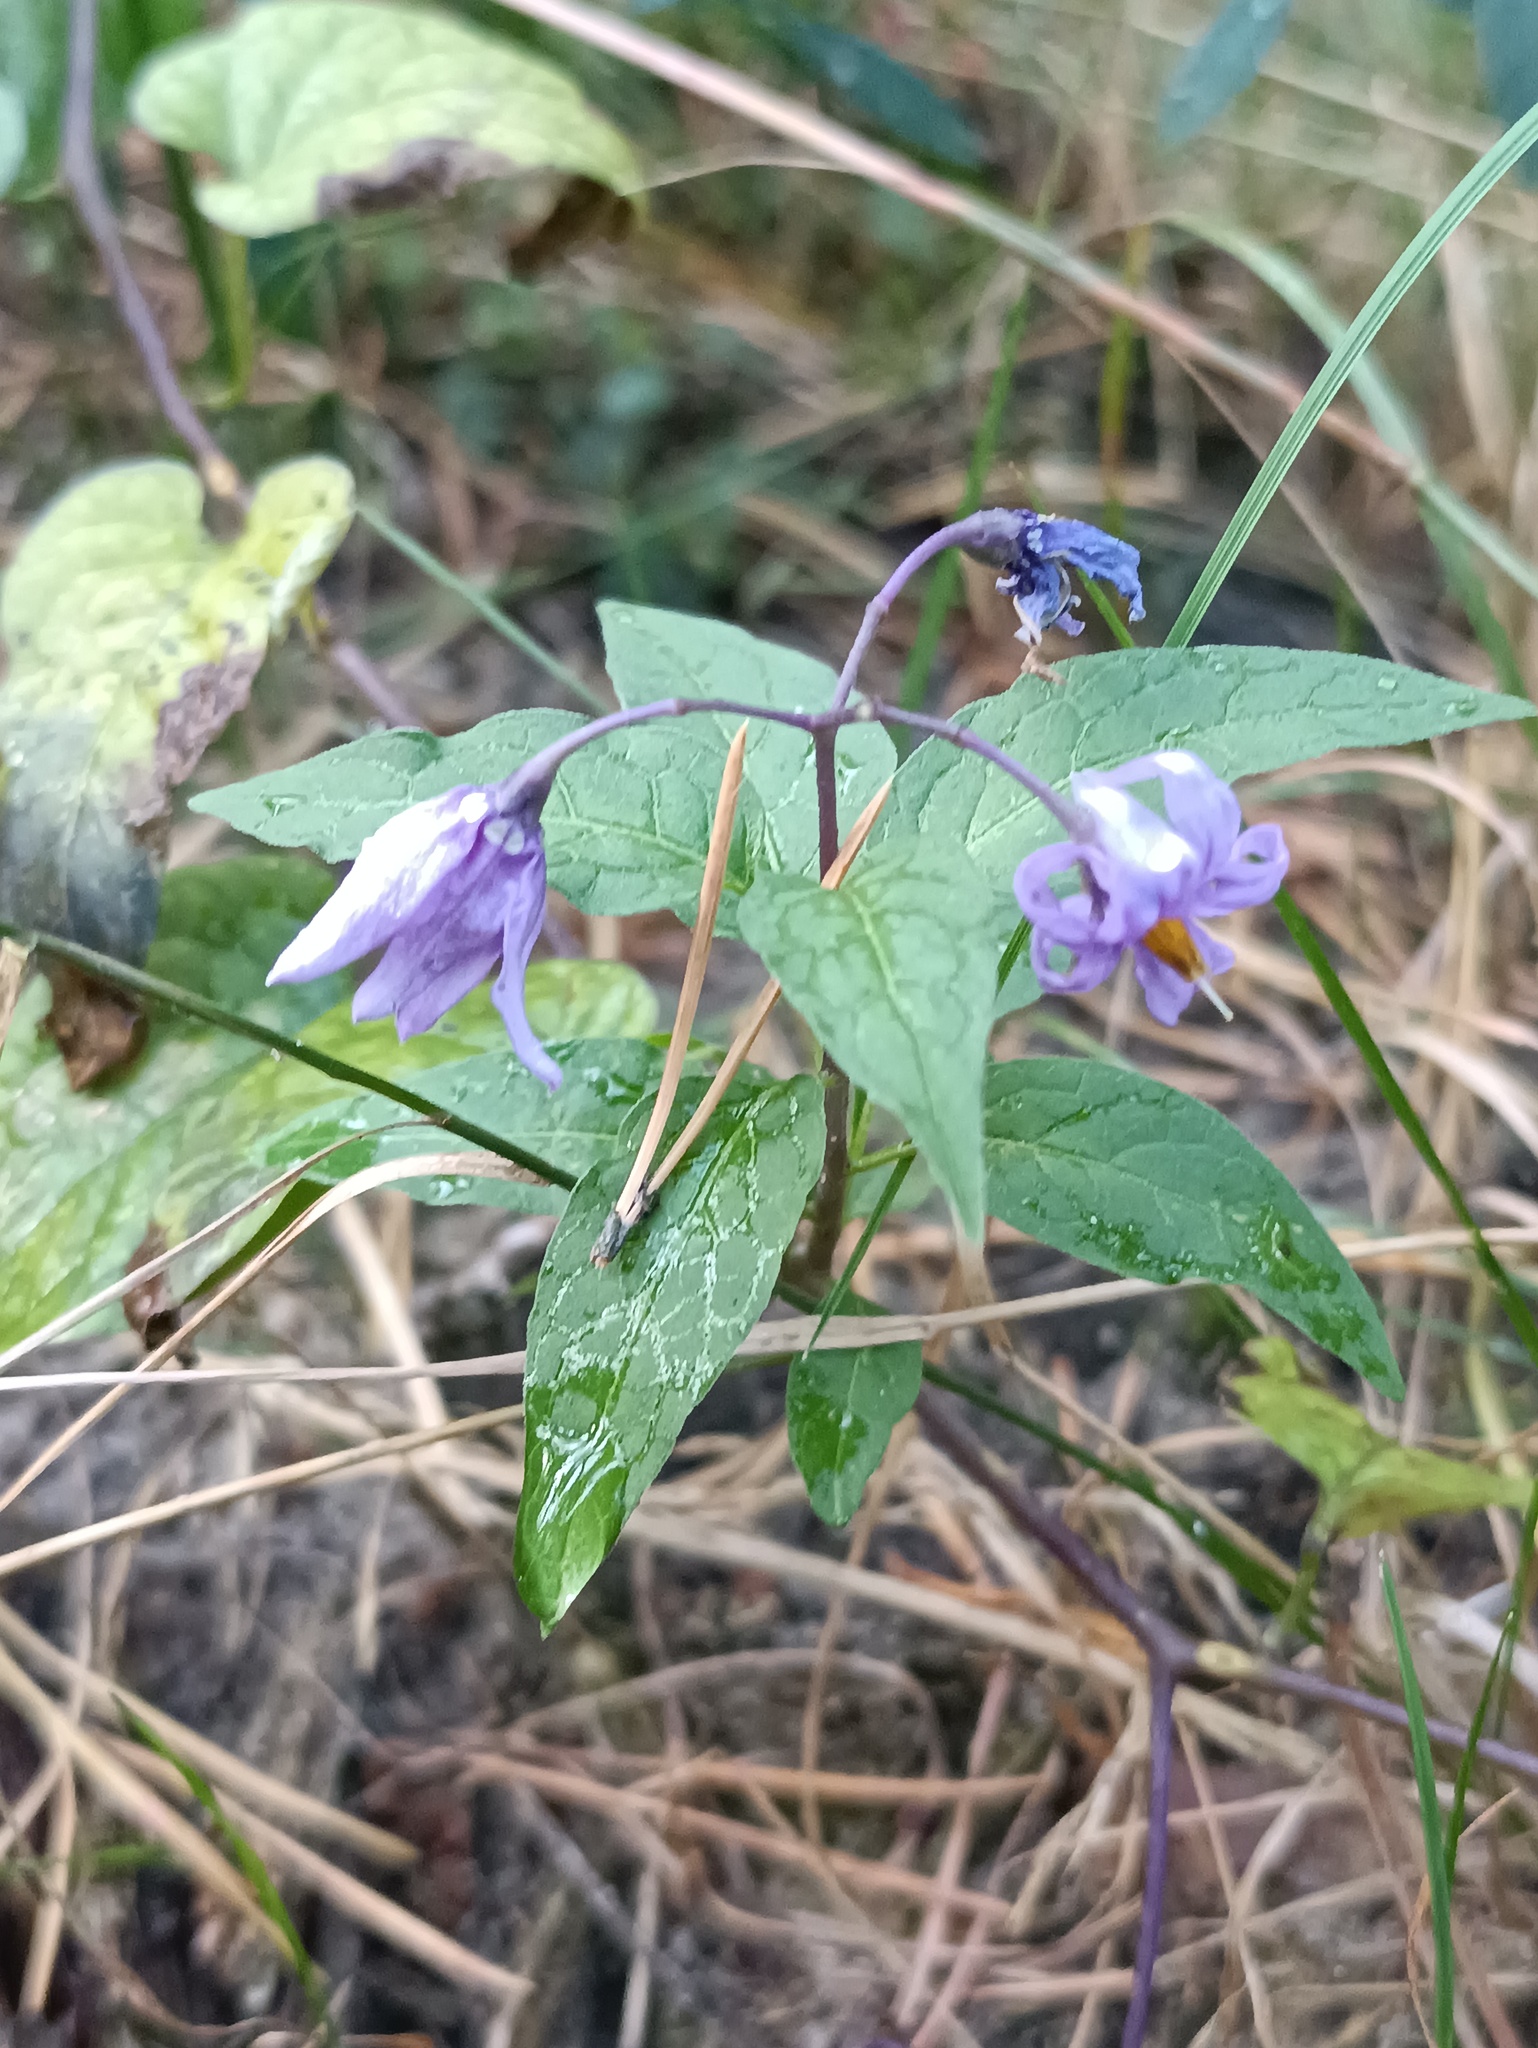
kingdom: Plantae
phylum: Tracheophyta
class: Magnoliopsida
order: Solanales
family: Solanaceae
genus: Solanum
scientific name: Solanum dulcamara
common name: Climbing nightshade
